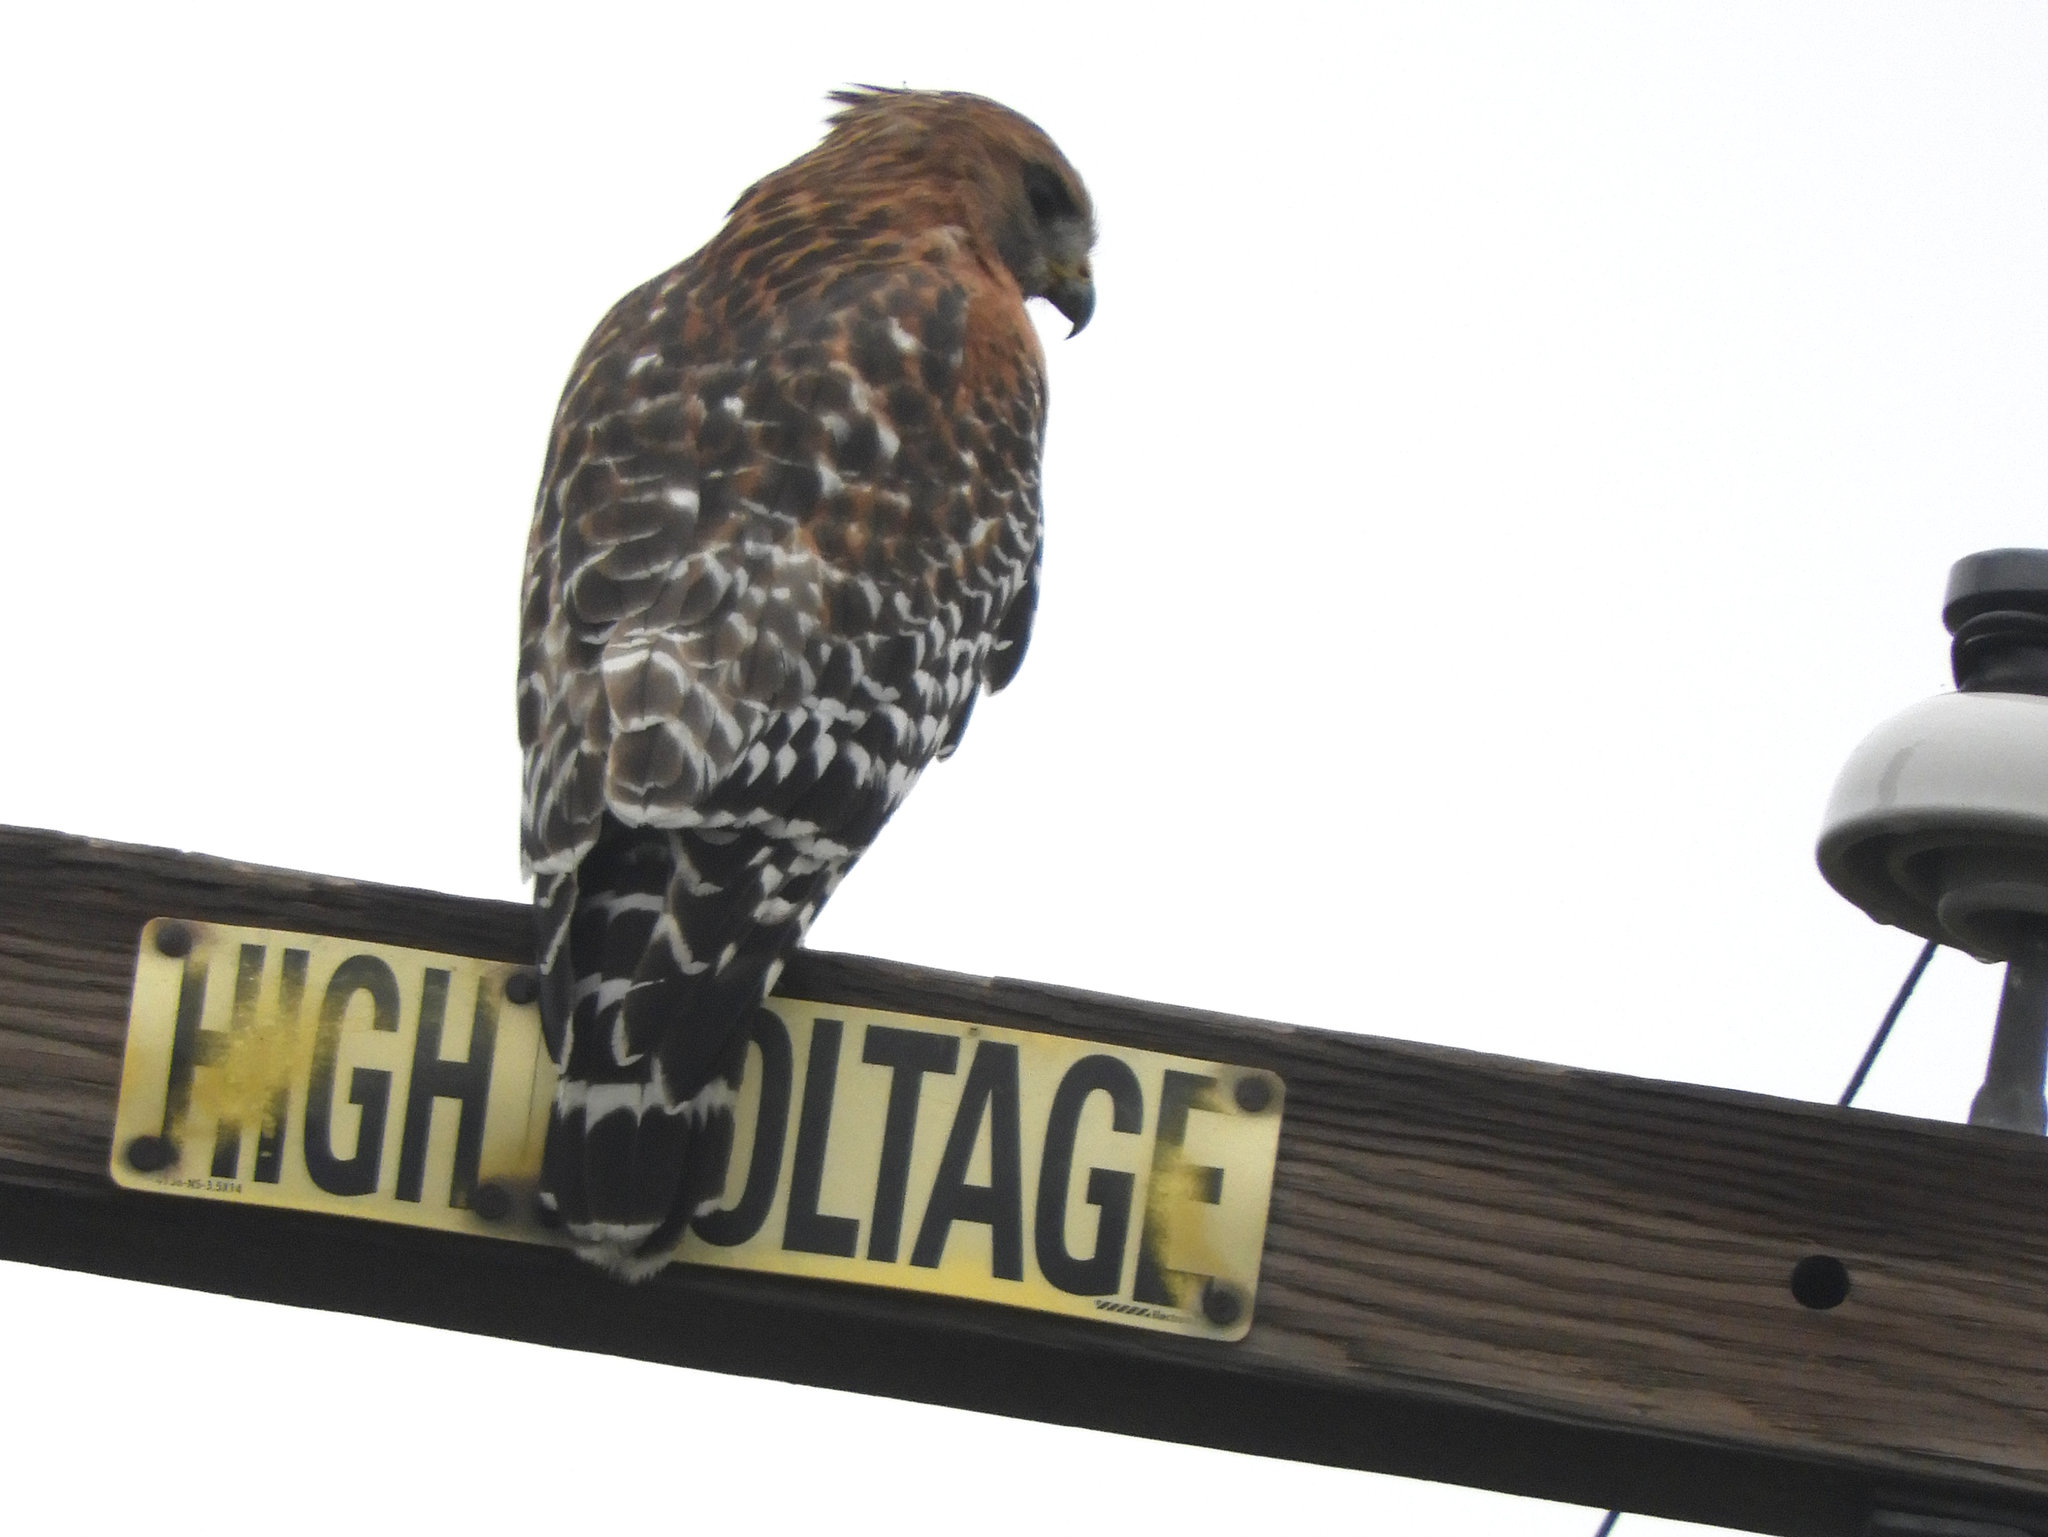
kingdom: Animalia
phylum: Chordata
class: Aves
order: Accipitriformes
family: Accipitridae
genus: Buteo
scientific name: Buteo lineatus
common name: Red-shouldered hawk
